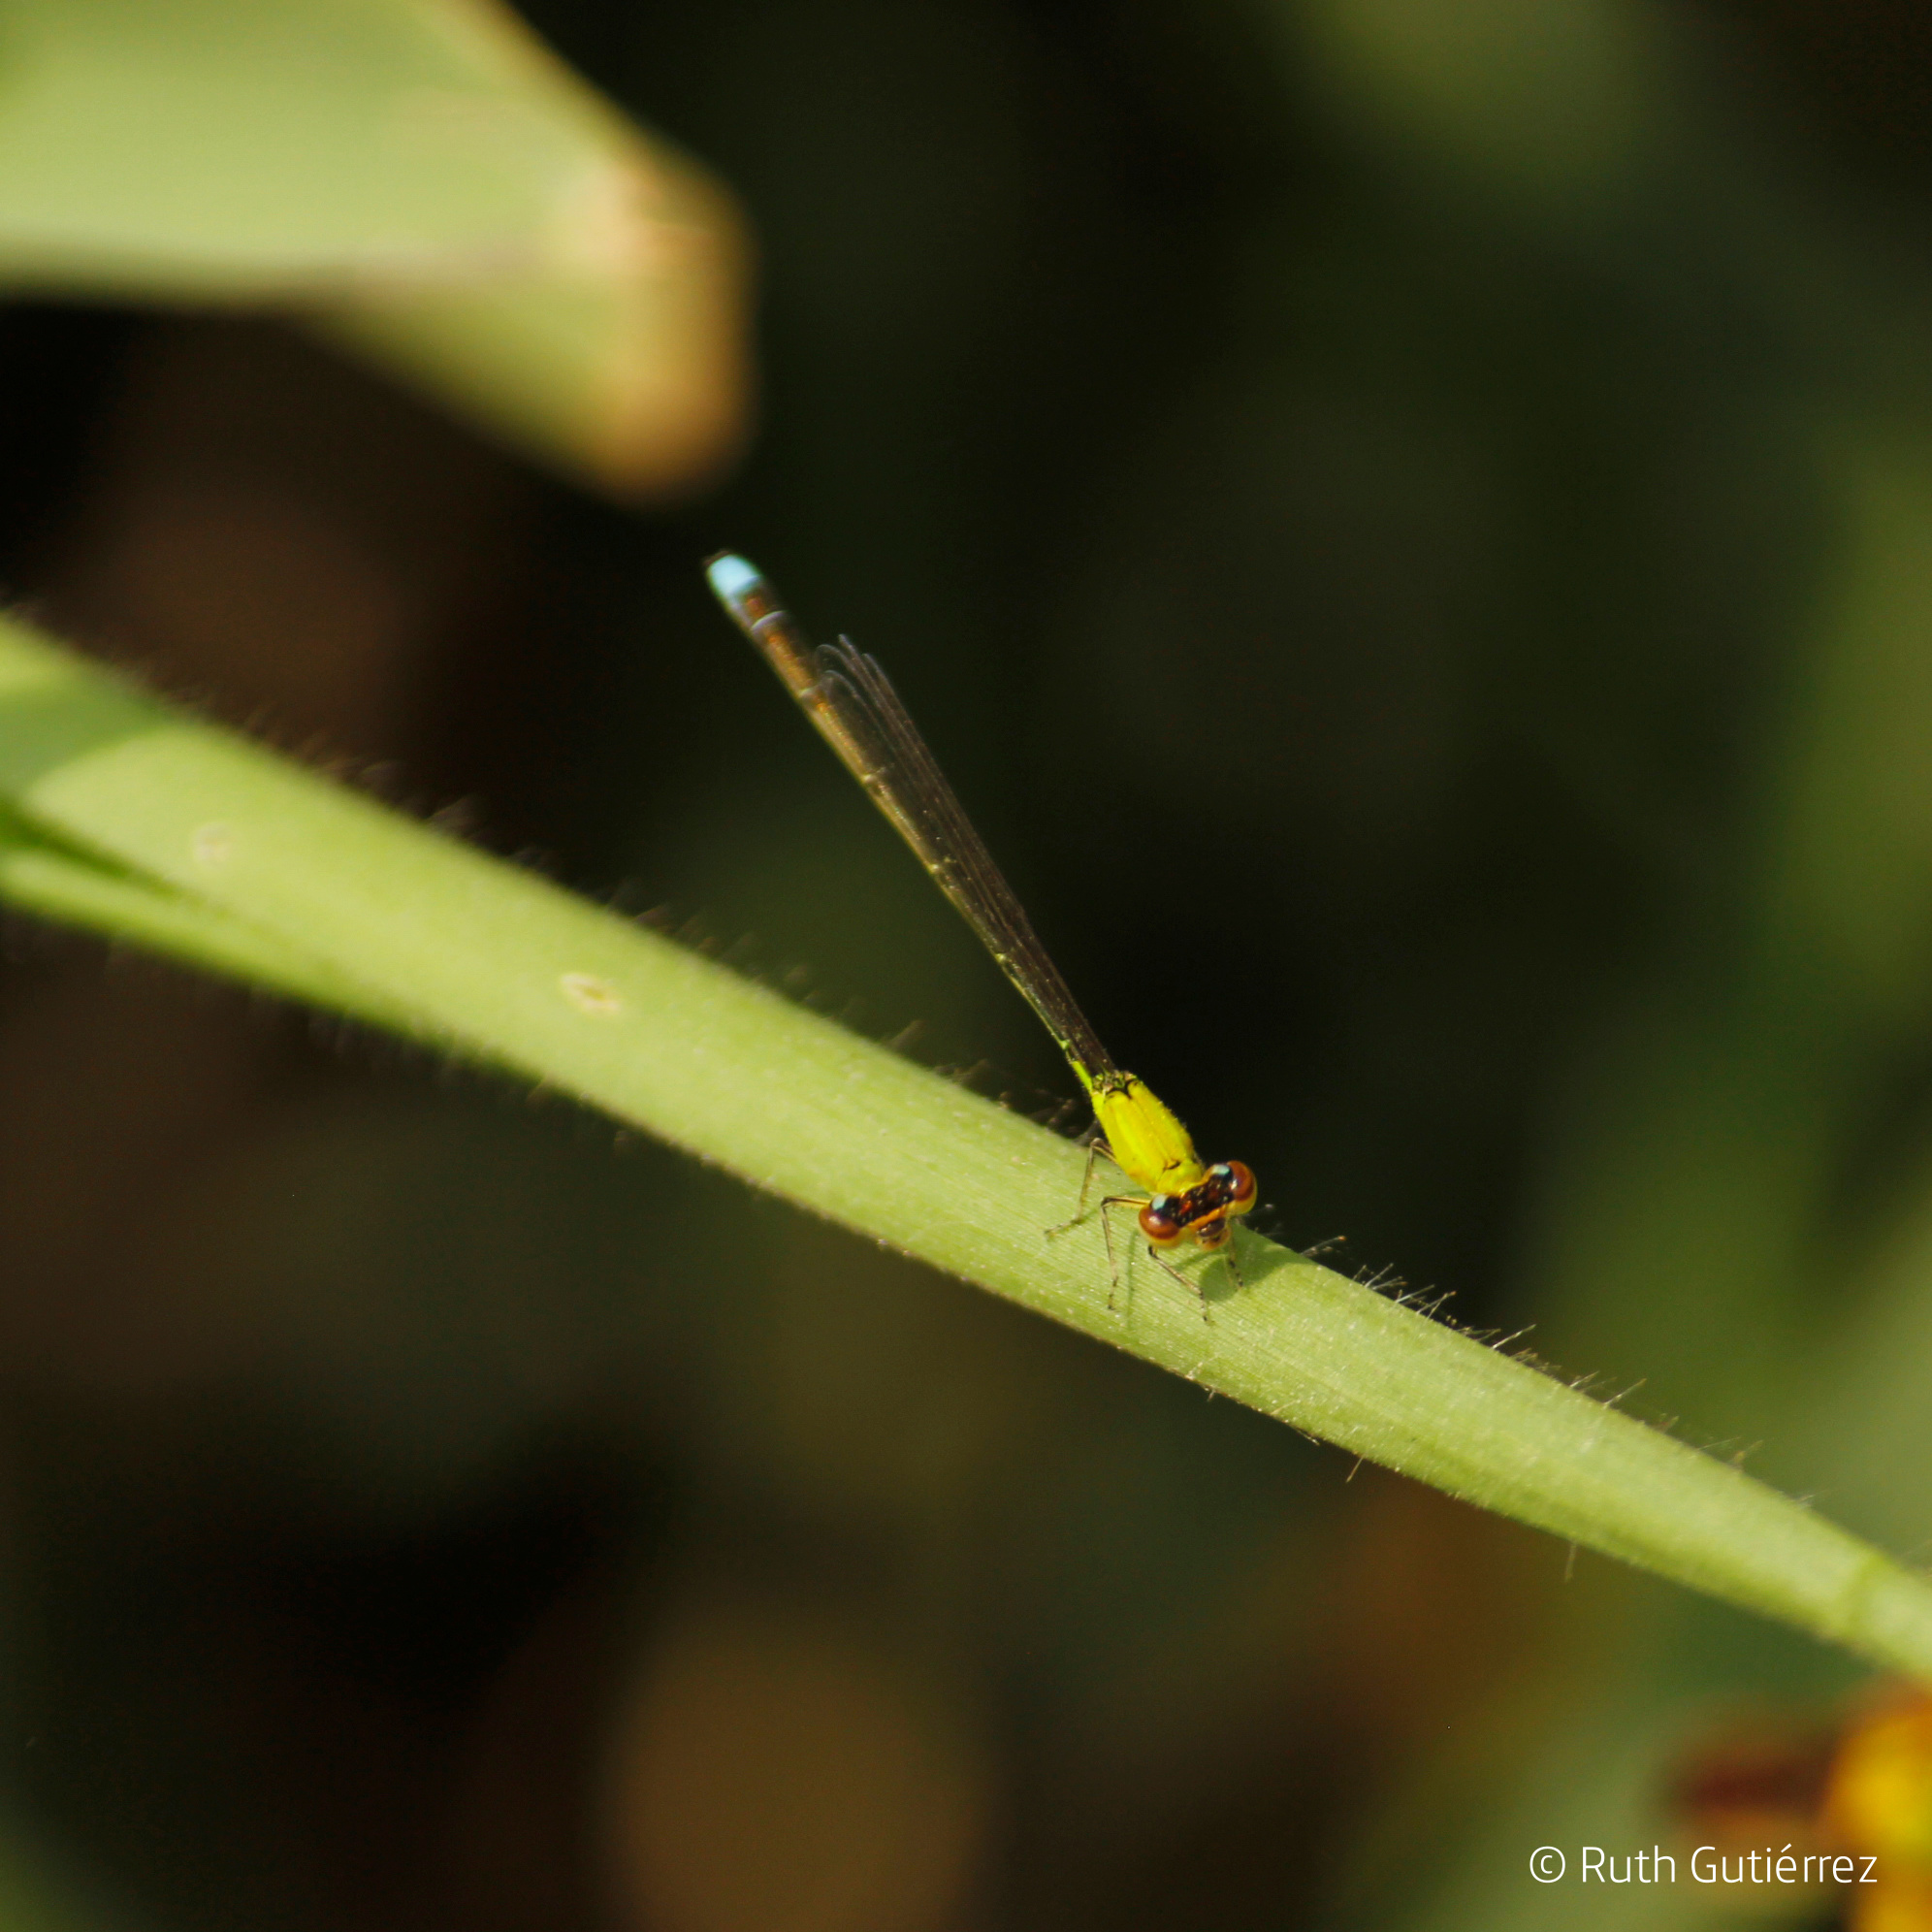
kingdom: Animalia
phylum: Arthropoda
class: Insecta
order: Odonata
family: Coenagrionidae
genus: Ischnura
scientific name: Ischnura capreolus
